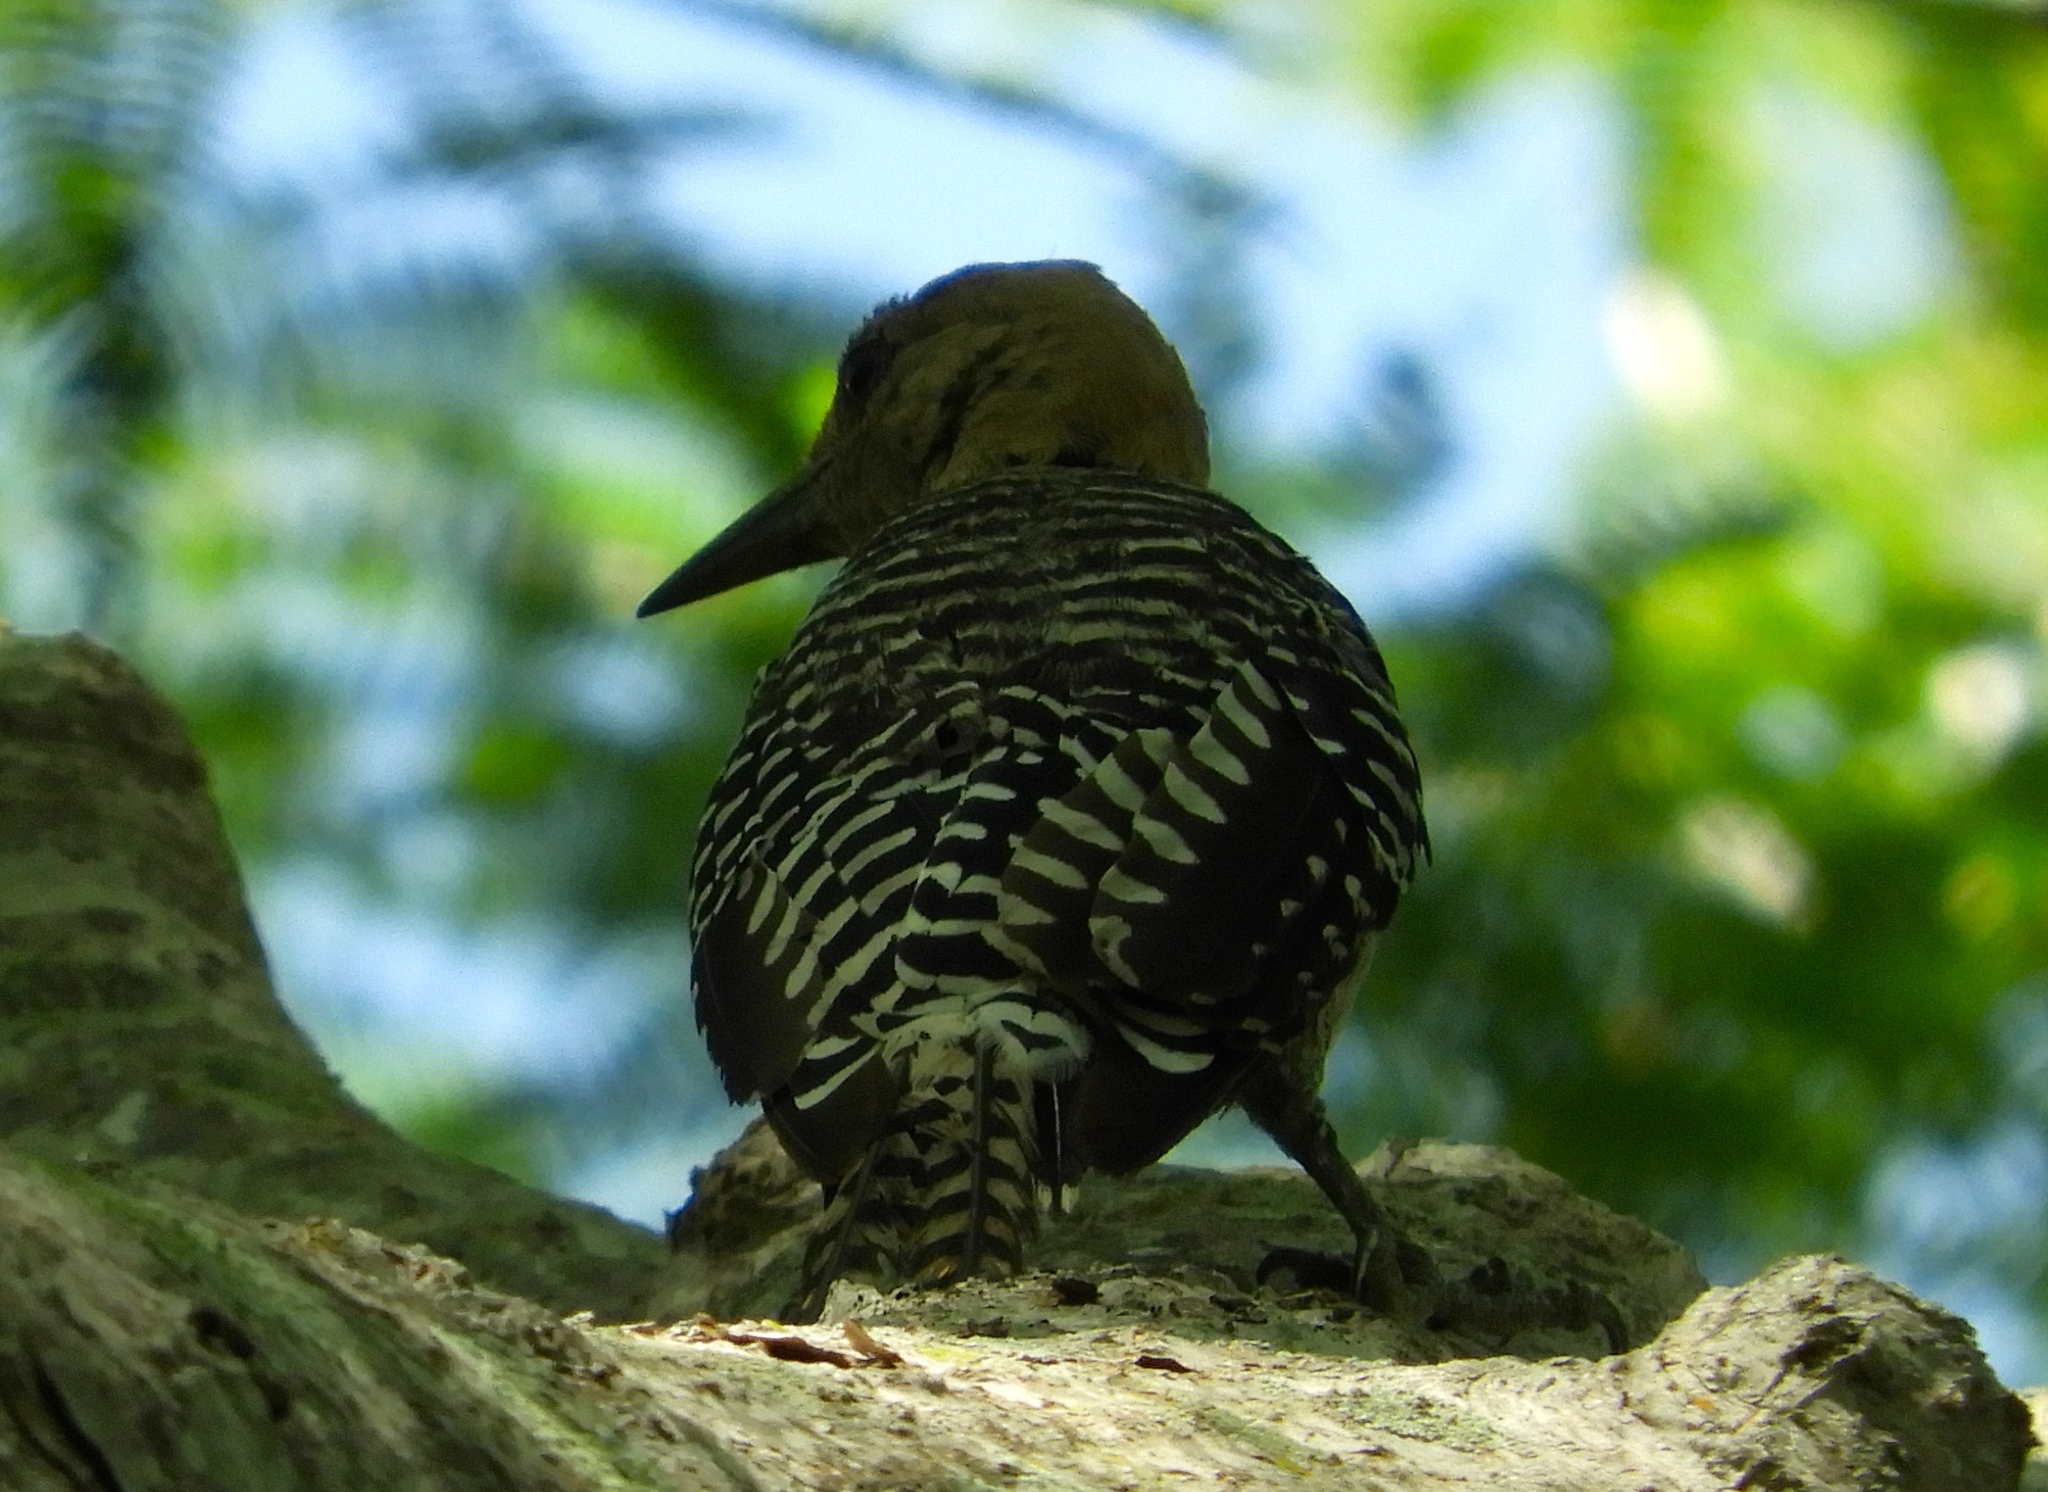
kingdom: Animalia
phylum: Chordata
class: Aves
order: Piciformes
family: Picidae
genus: Melanerpes
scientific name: Melanerpes uropygialis
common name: Gila woodpecker
